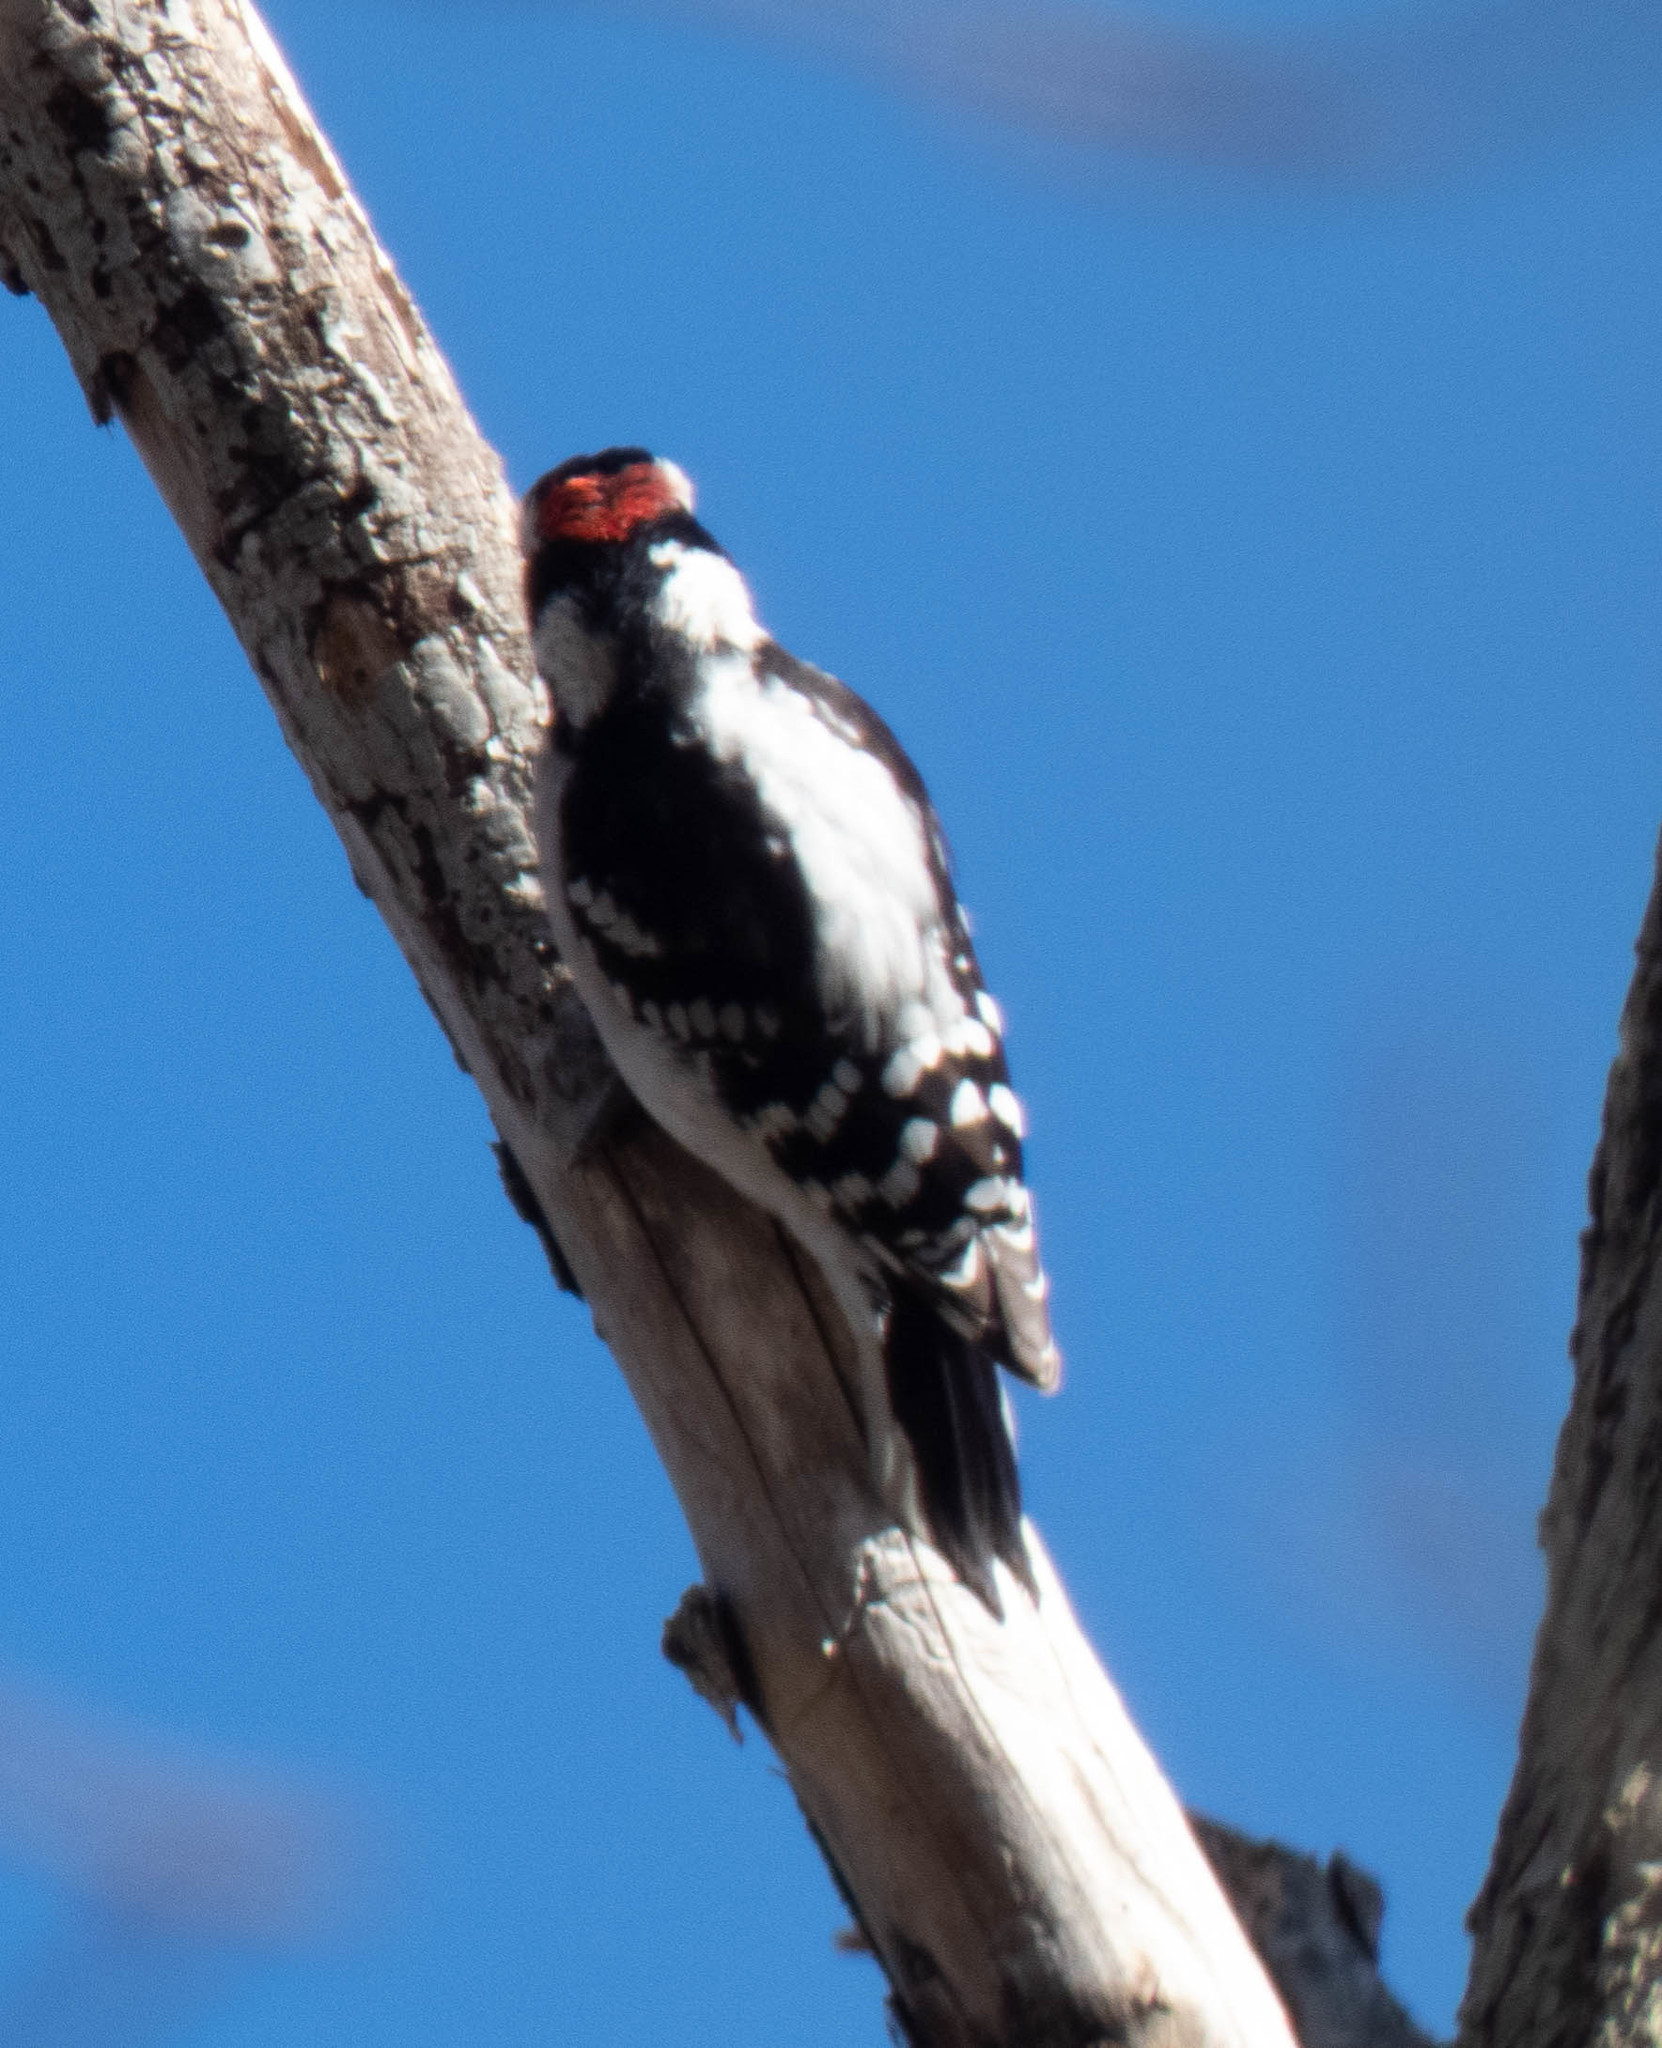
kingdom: Animalia
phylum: Chordata
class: Aves
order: Piciformes
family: Picidae
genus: Leuconotopicus
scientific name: Leuconotopicus villosus
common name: Hairy woodpecker
